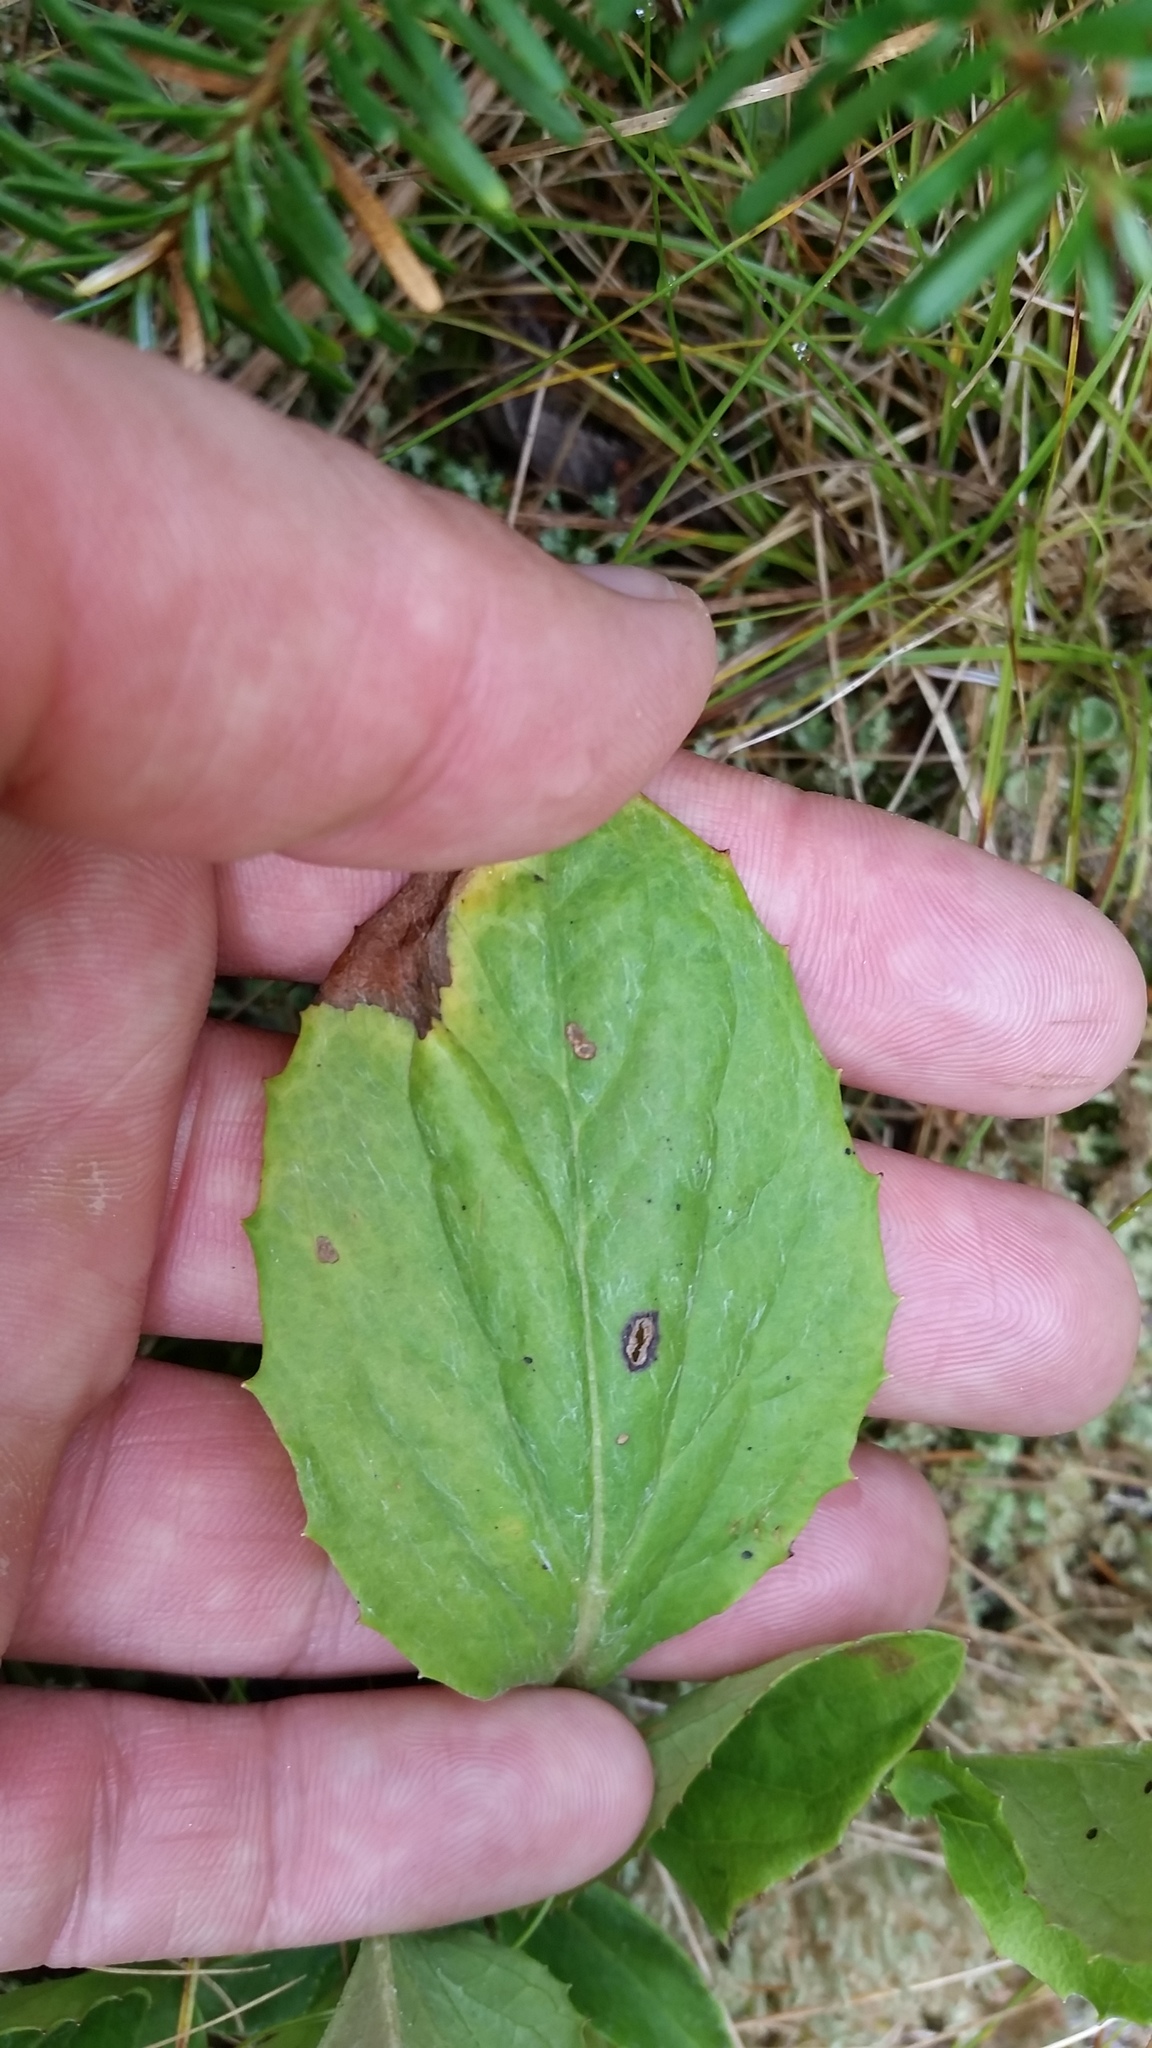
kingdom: Plantae
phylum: Tracheophyta
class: Magnoliopsida
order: Asterales
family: Asteraceae
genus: Rugelia
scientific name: Rugelia nudicaulis
